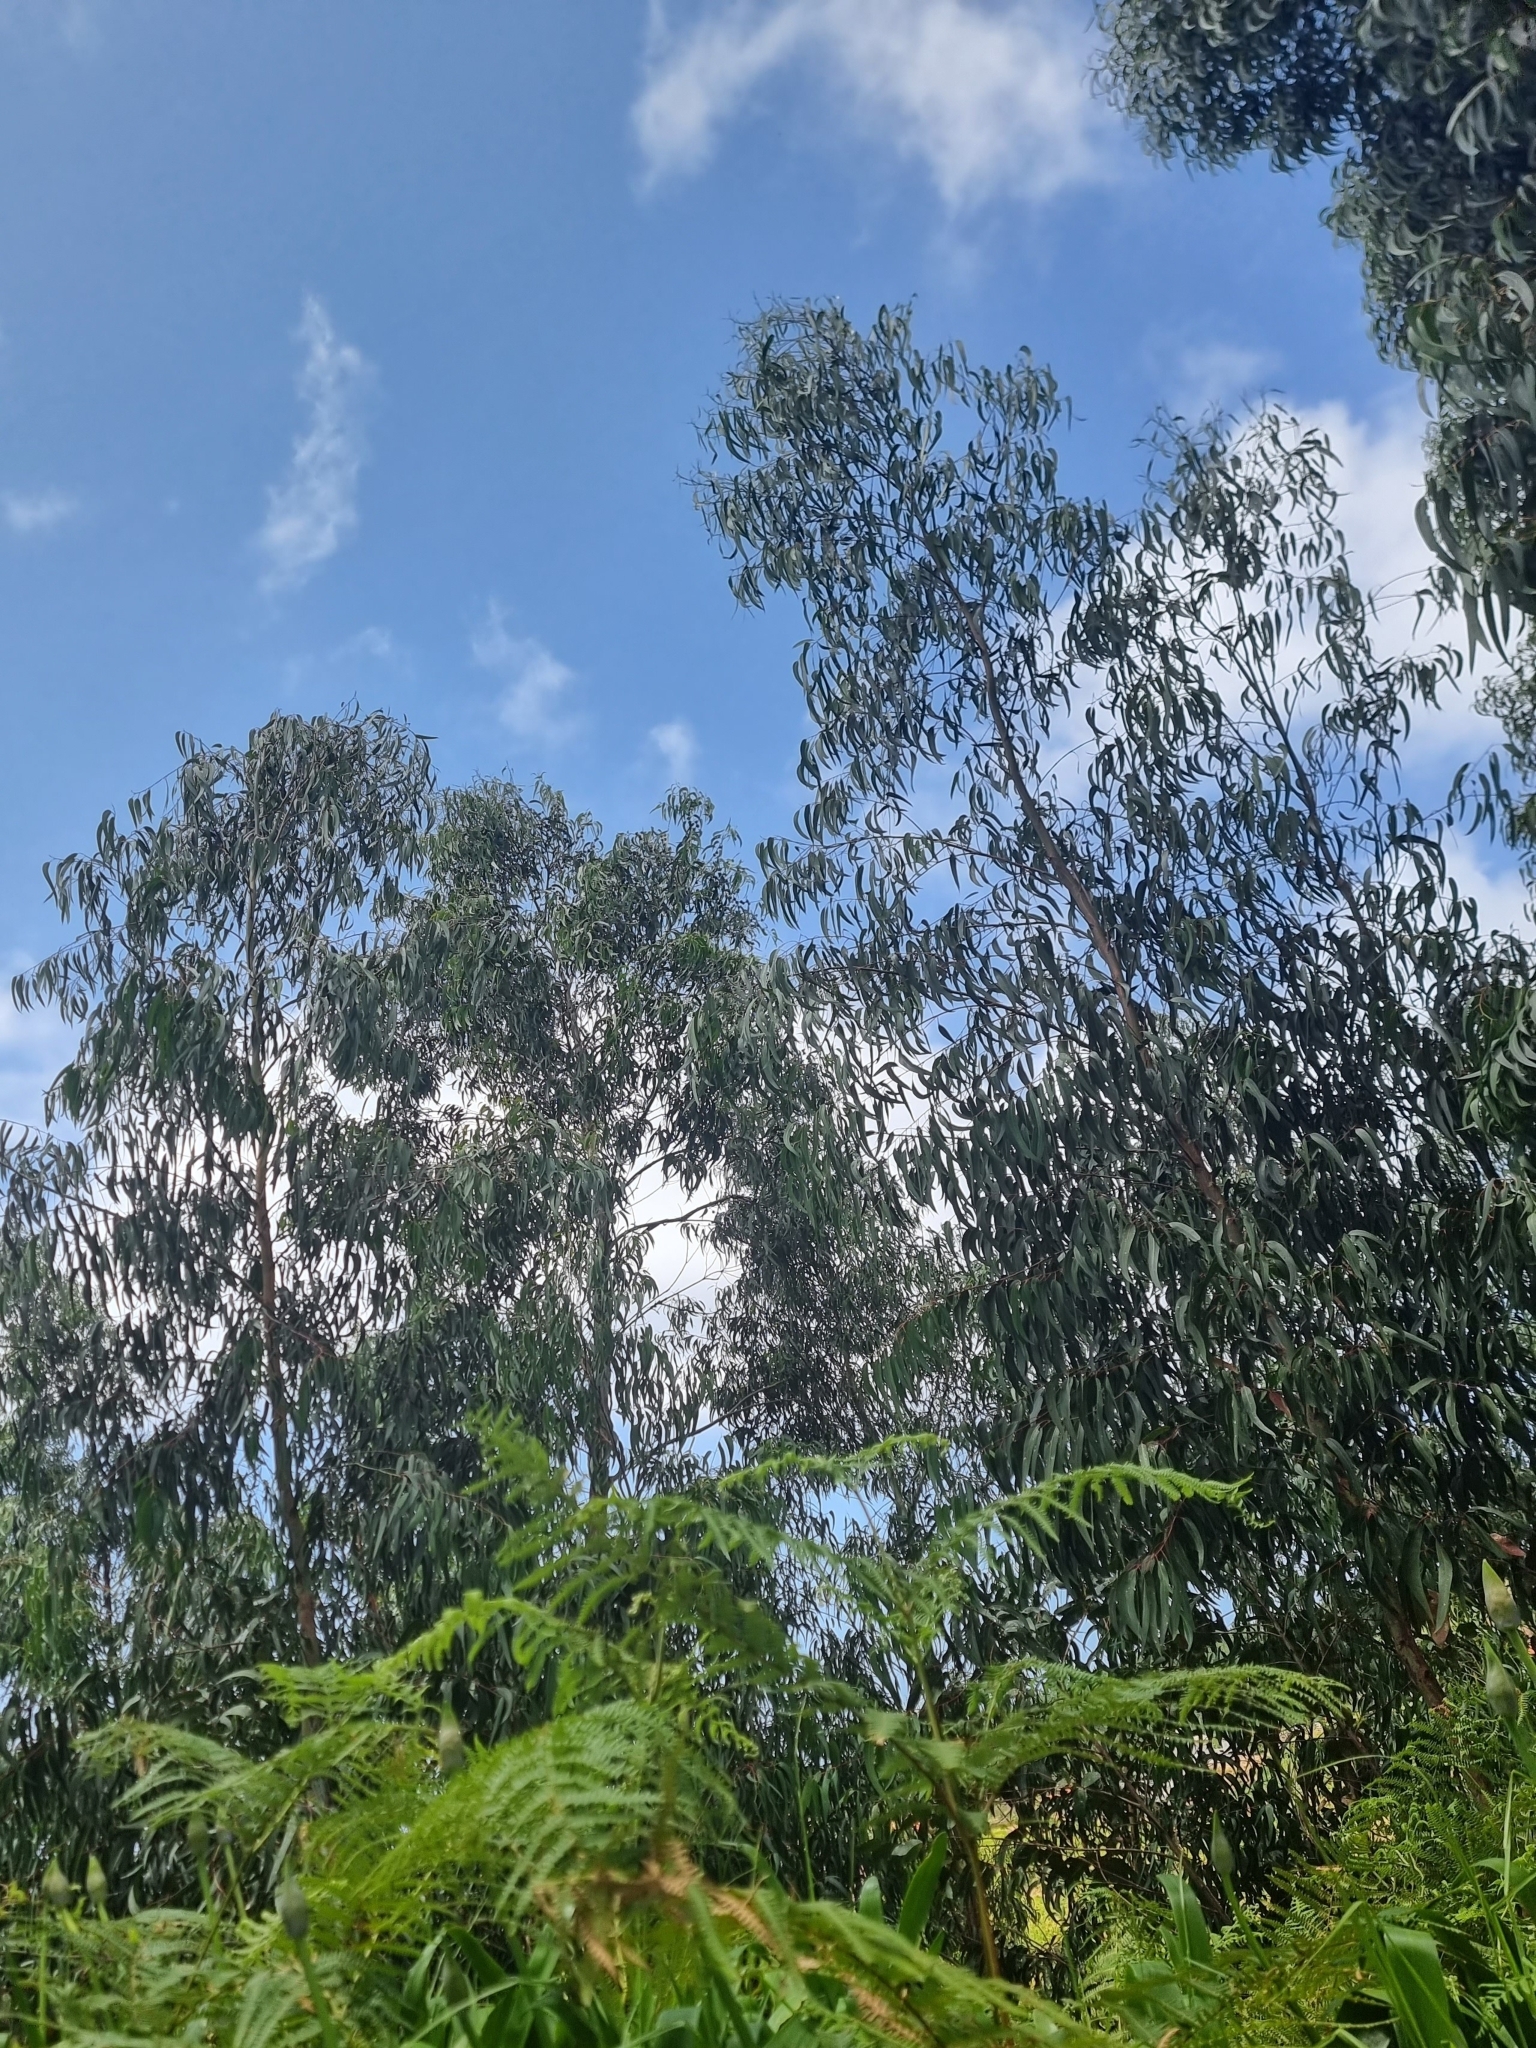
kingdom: Plantae
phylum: Tracheophyta
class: Magnoliopsida
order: Myrtales
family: Myrtaceae
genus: Eucalyptus
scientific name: Eucalyptus globulus
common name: Southern blue-gum
